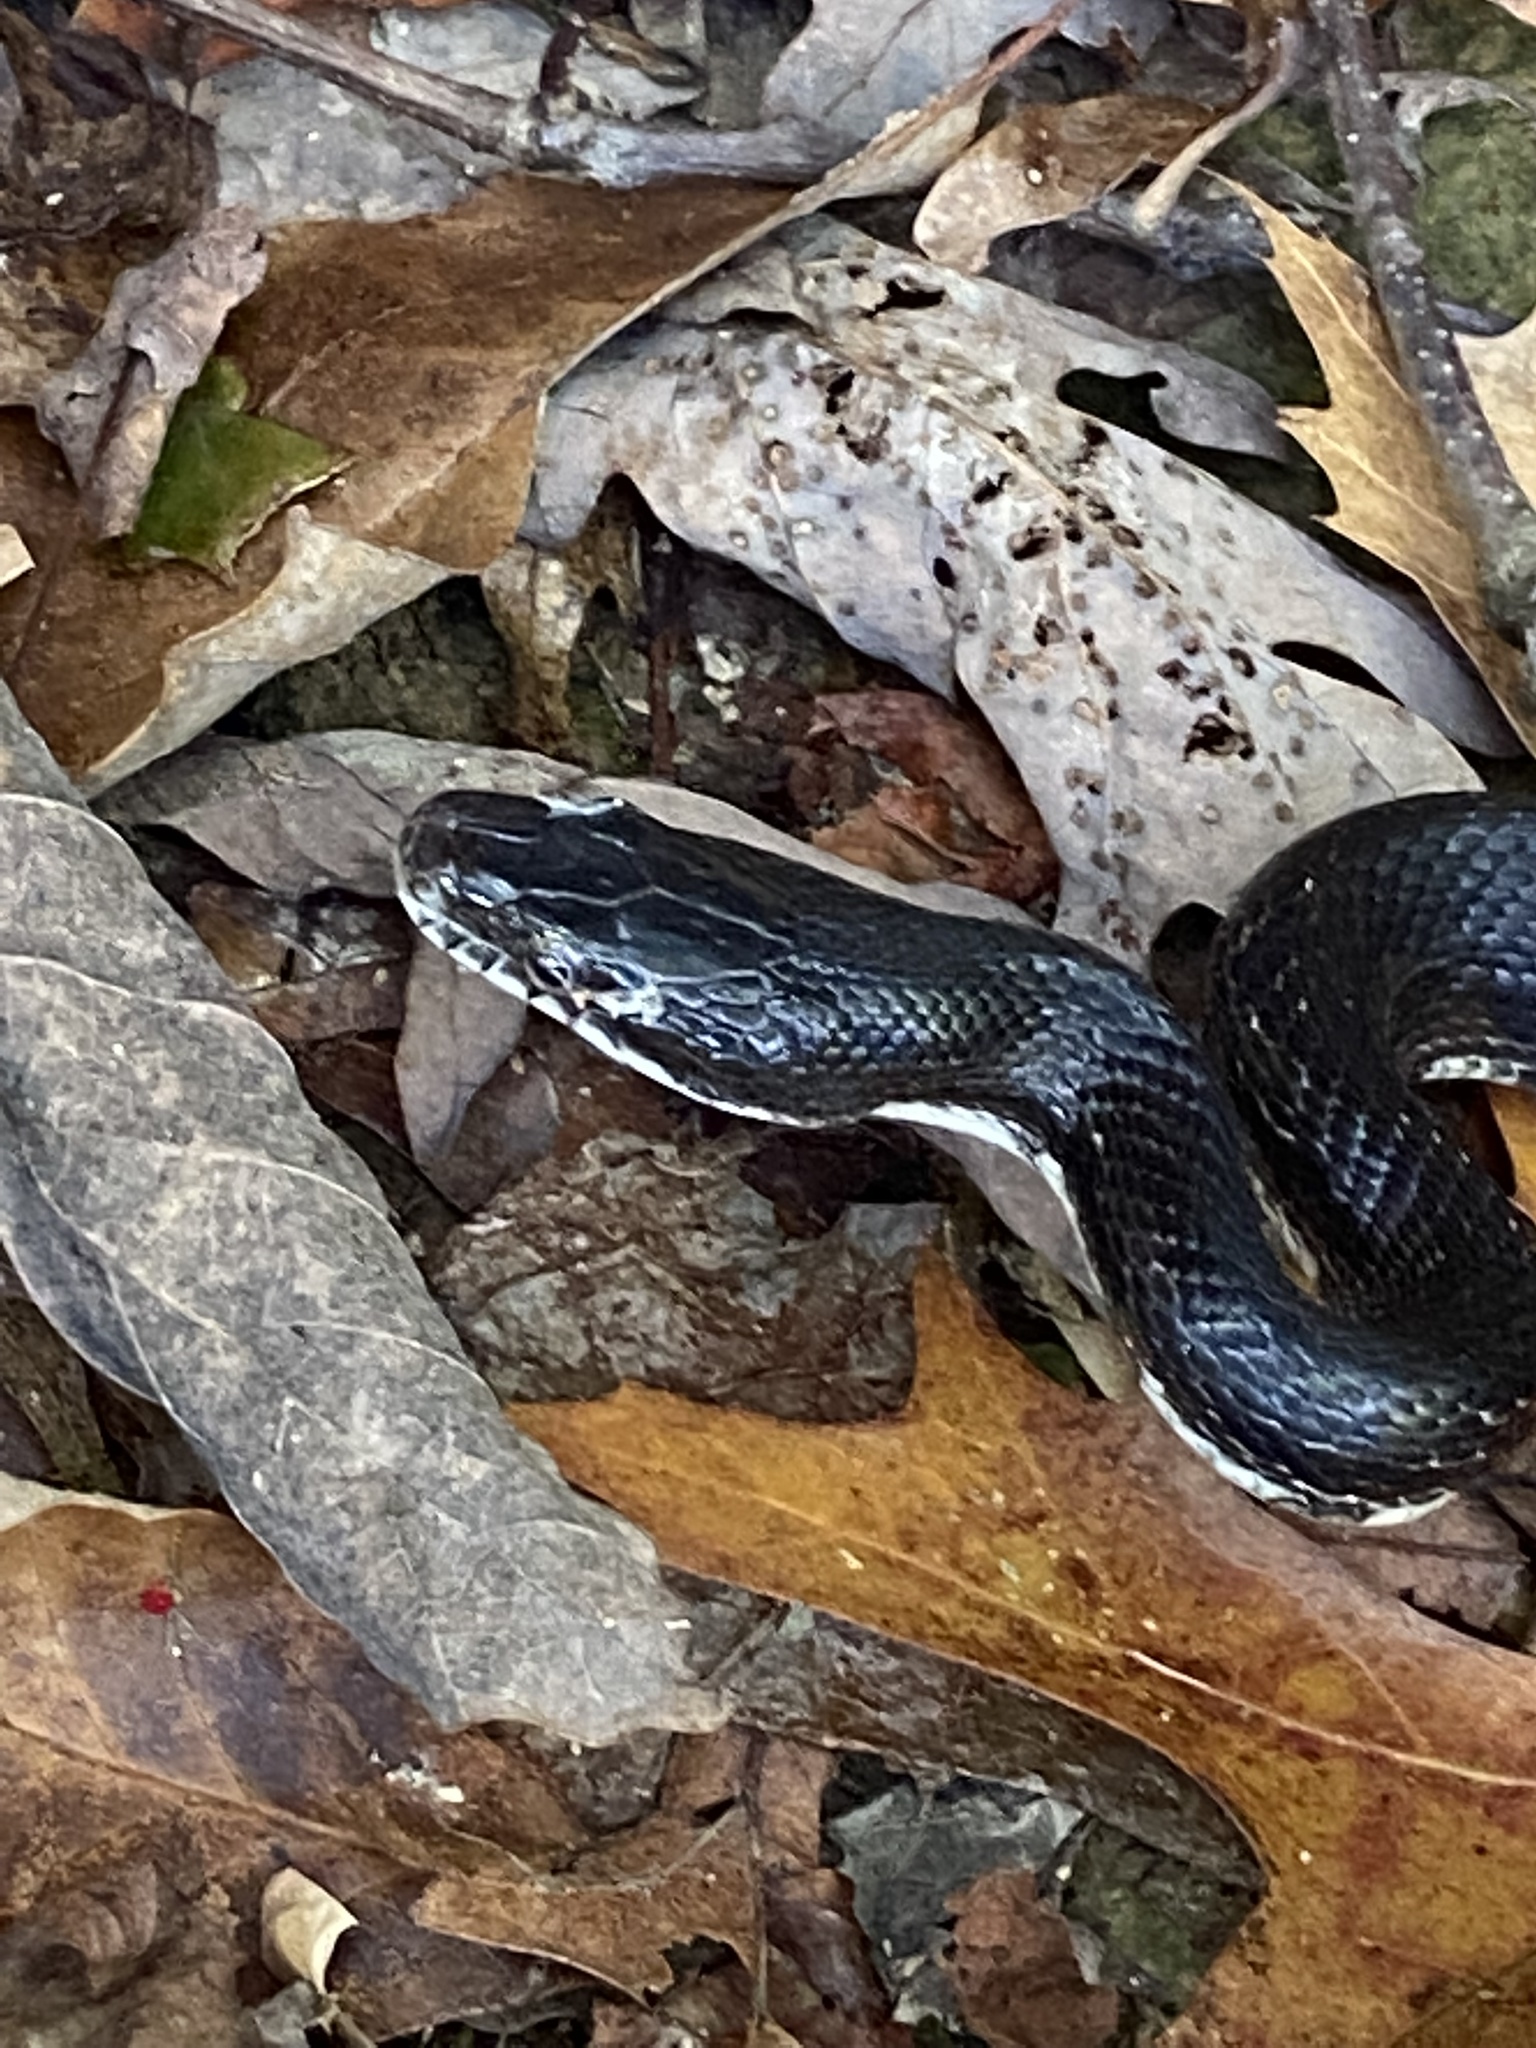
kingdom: Animalia
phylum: Chordata
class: Squamata
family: Colubridae
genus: Pantherophis
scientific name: Pantherophis alleghaniensis
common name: Eastern rat snake
